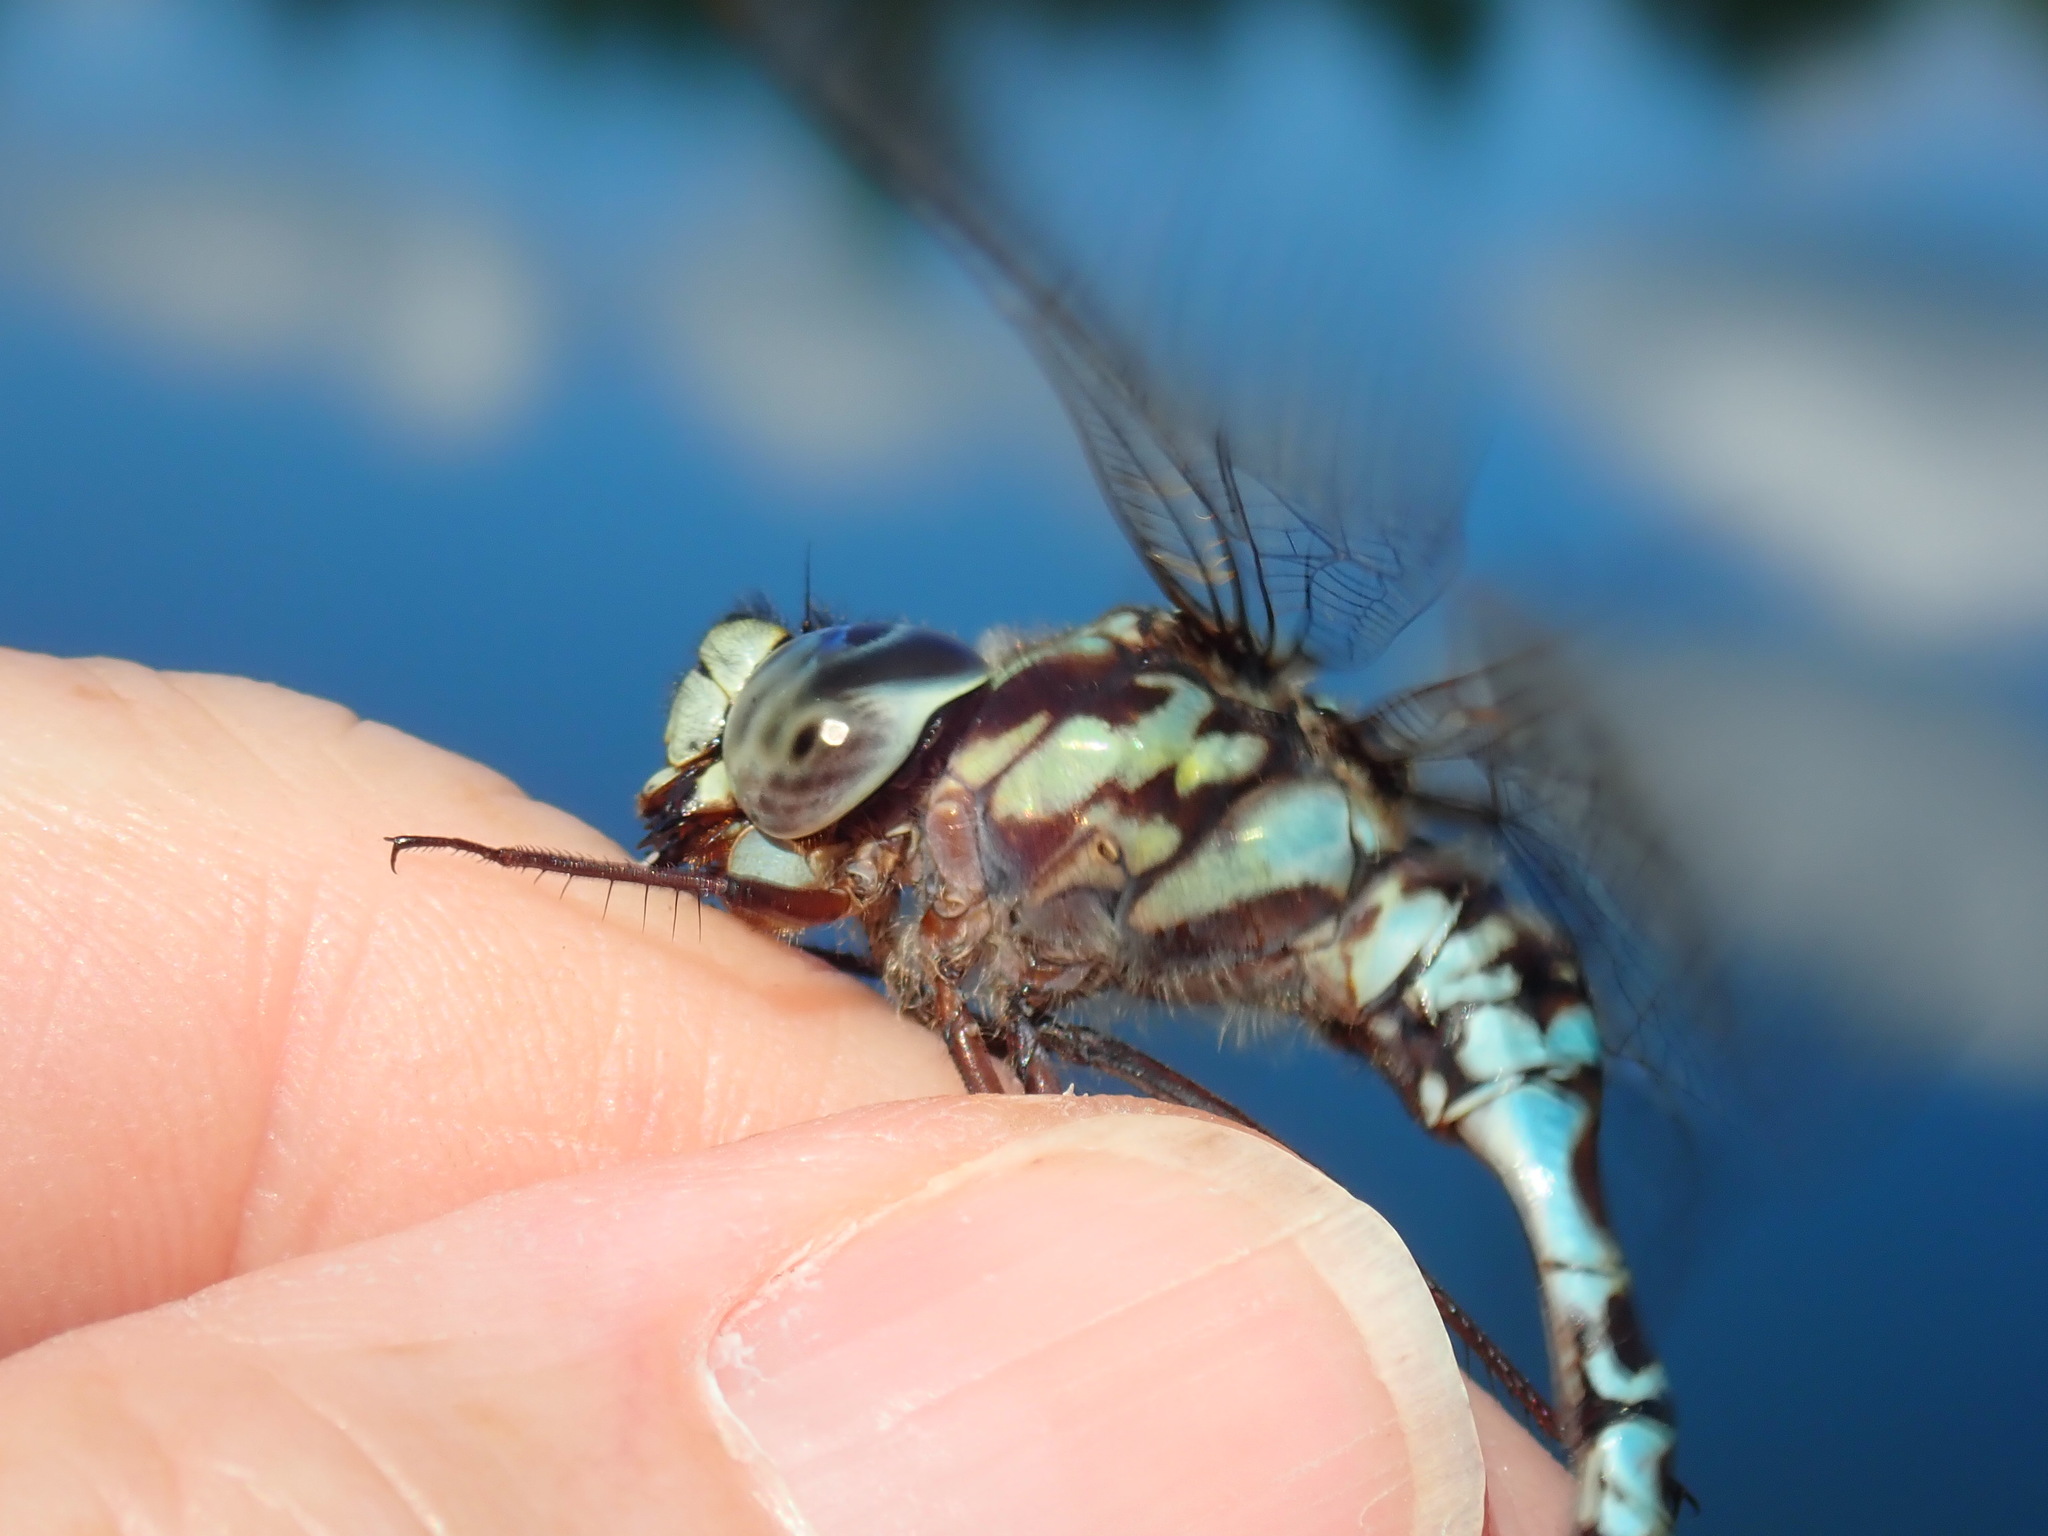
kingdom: Animalia
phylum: Arthropoda
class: Insecta
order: Odonata
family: Aeshnidae
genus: Aeshna
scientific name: Aeshna clepsydra
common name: Mottled darner
